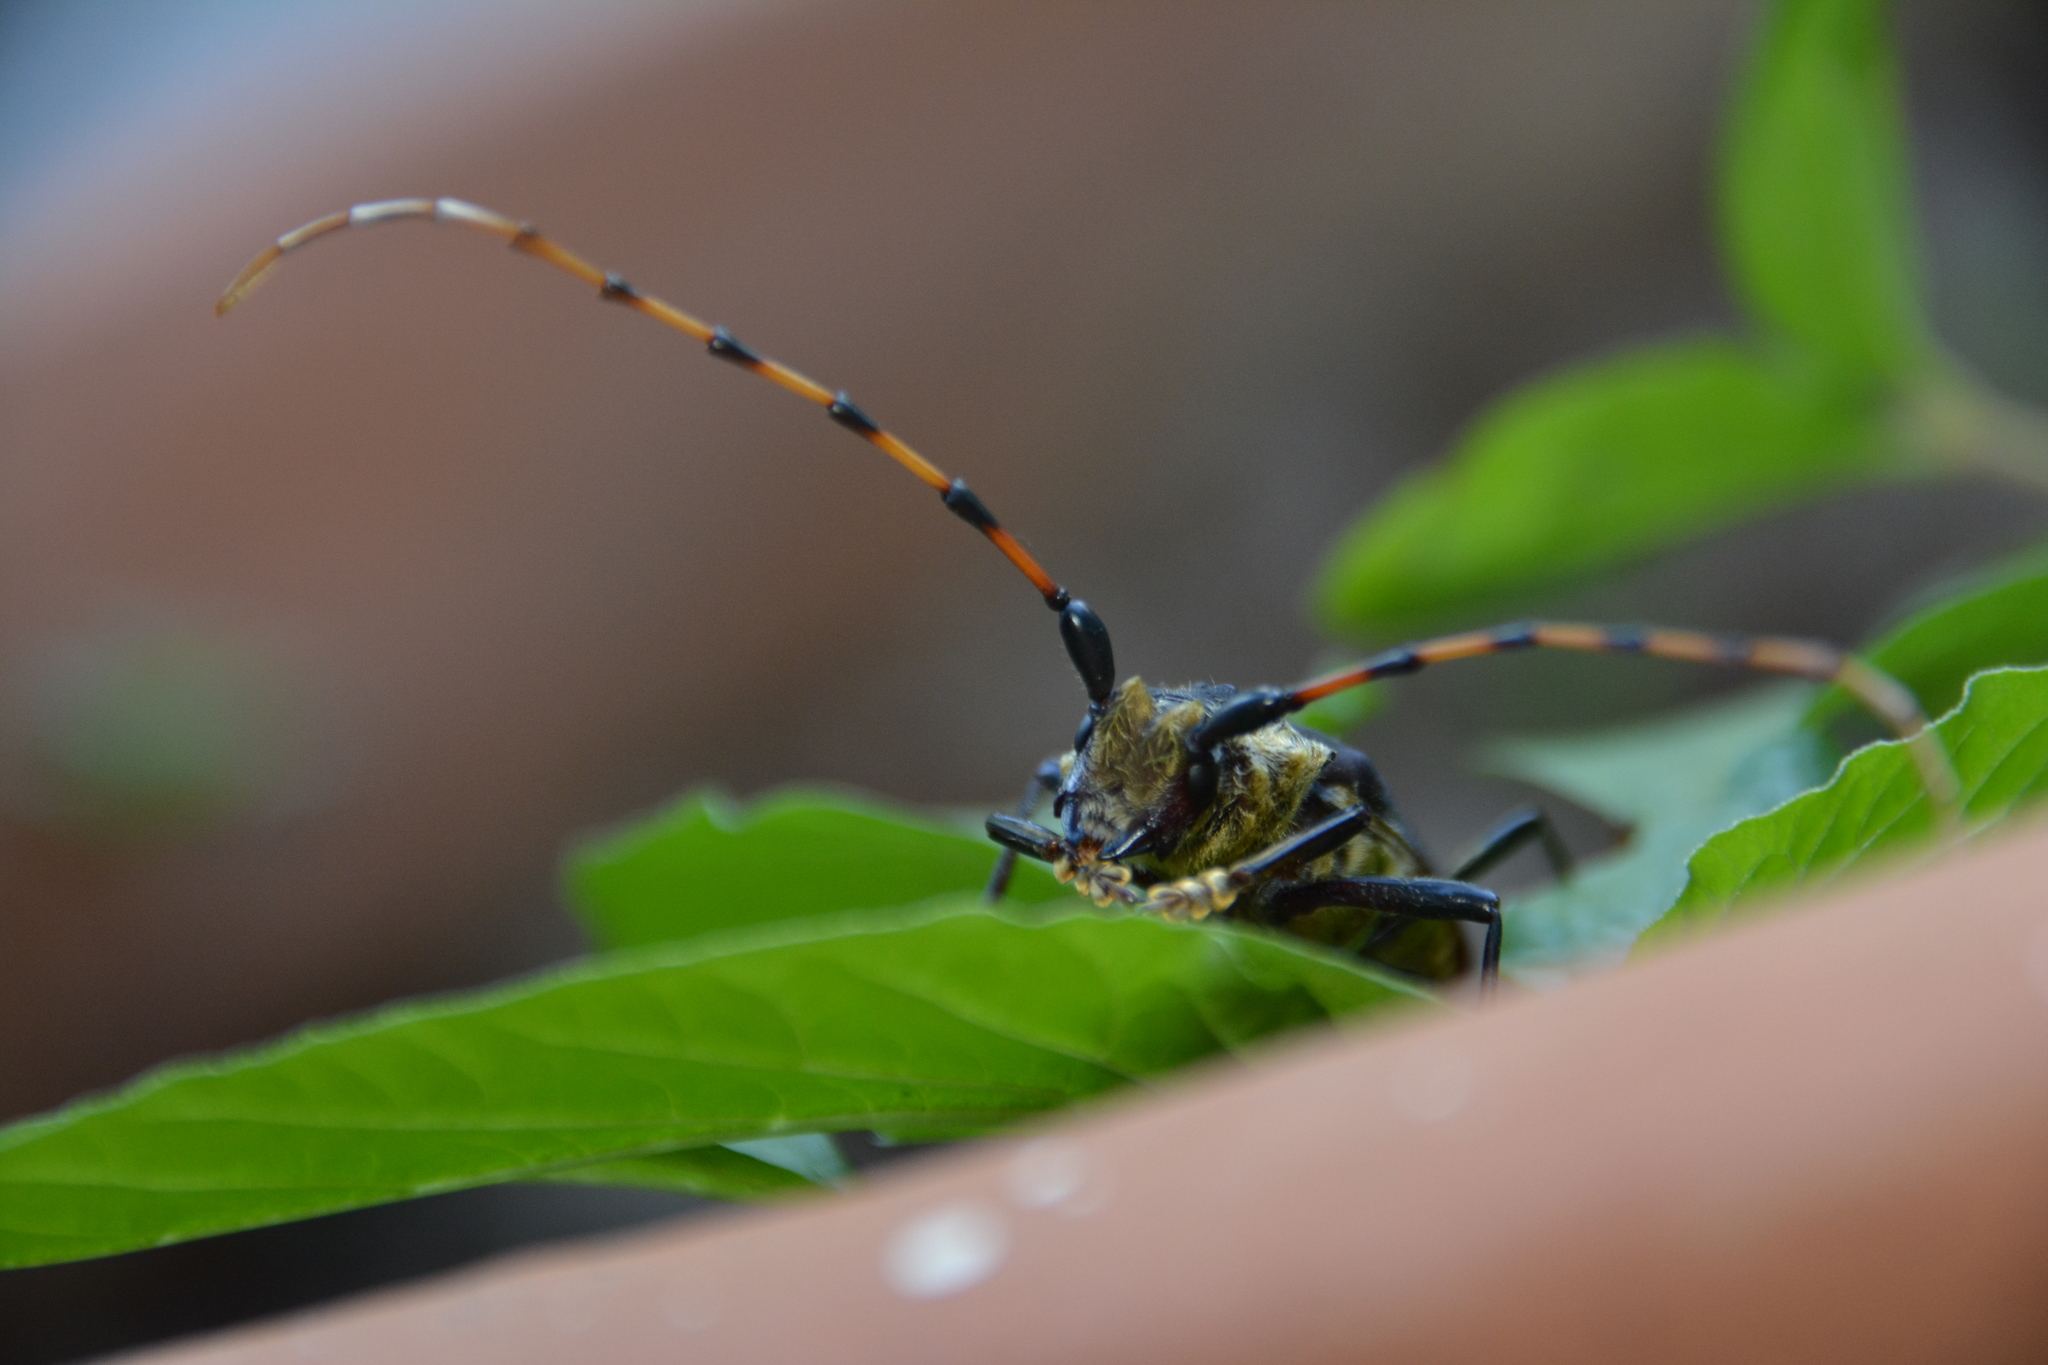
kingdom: Animalia
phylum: Arthropoda
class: Insecta
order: Coleoptera
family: Cerambycidae
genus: Retrachydes
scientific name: Retrachydes thoracicus
